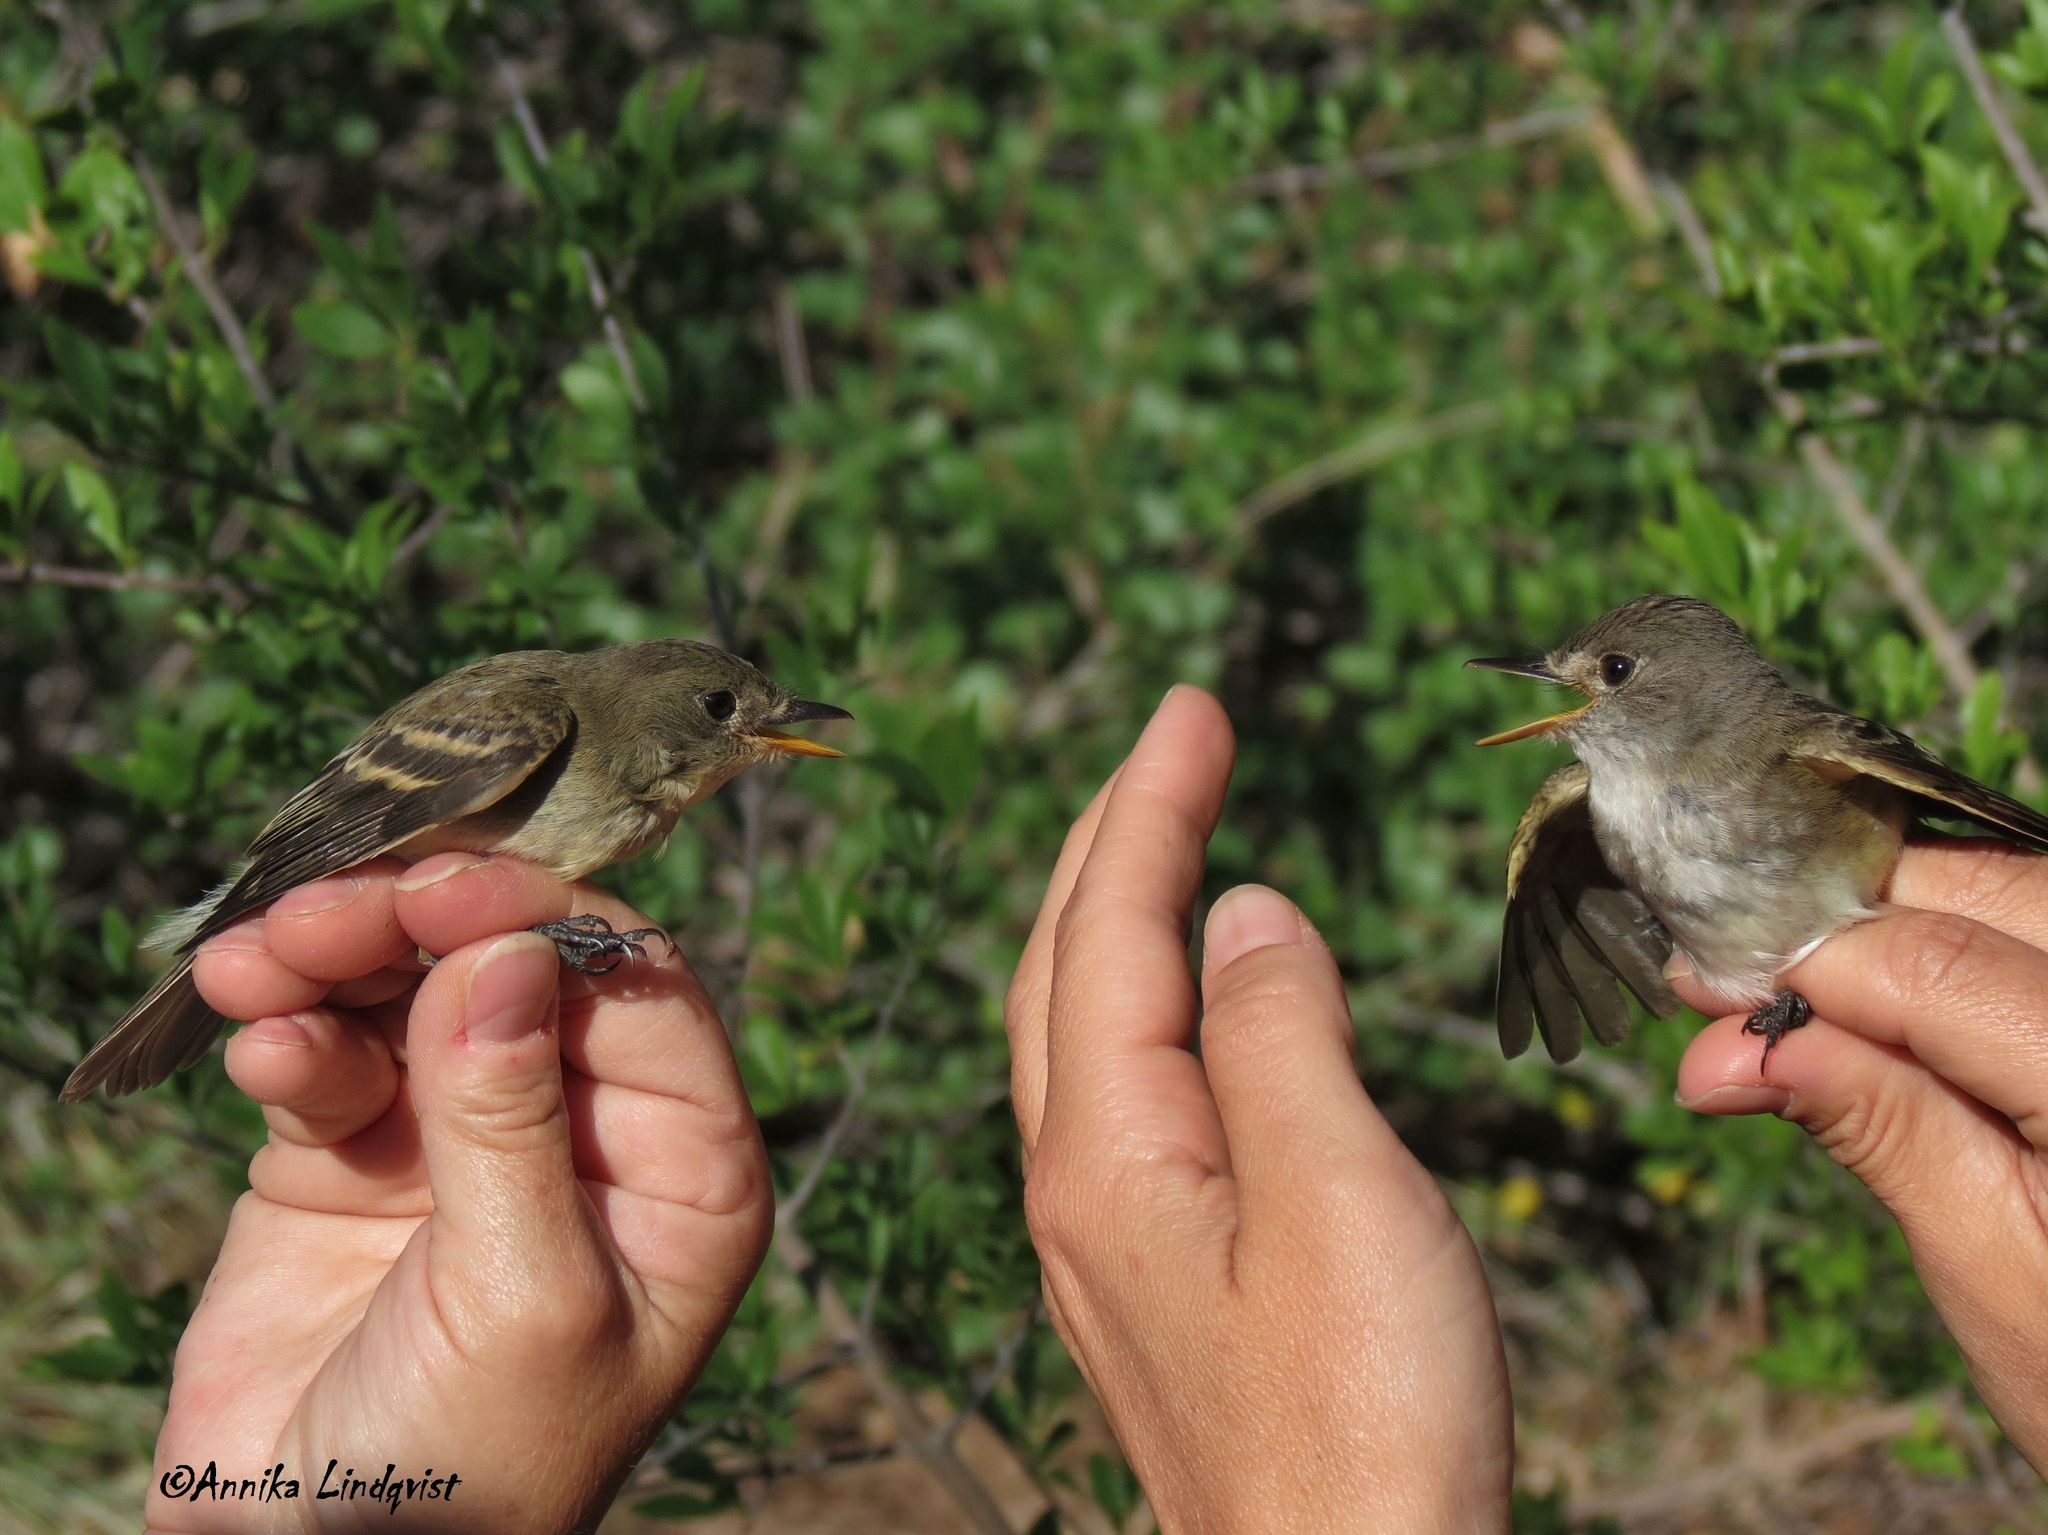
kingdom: Animalia
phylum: Chordata
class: Aves
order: Passeriformes
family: Tyrannidae
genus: Empidonax
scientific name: Empidonax traillii
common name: Willow flycatcher
